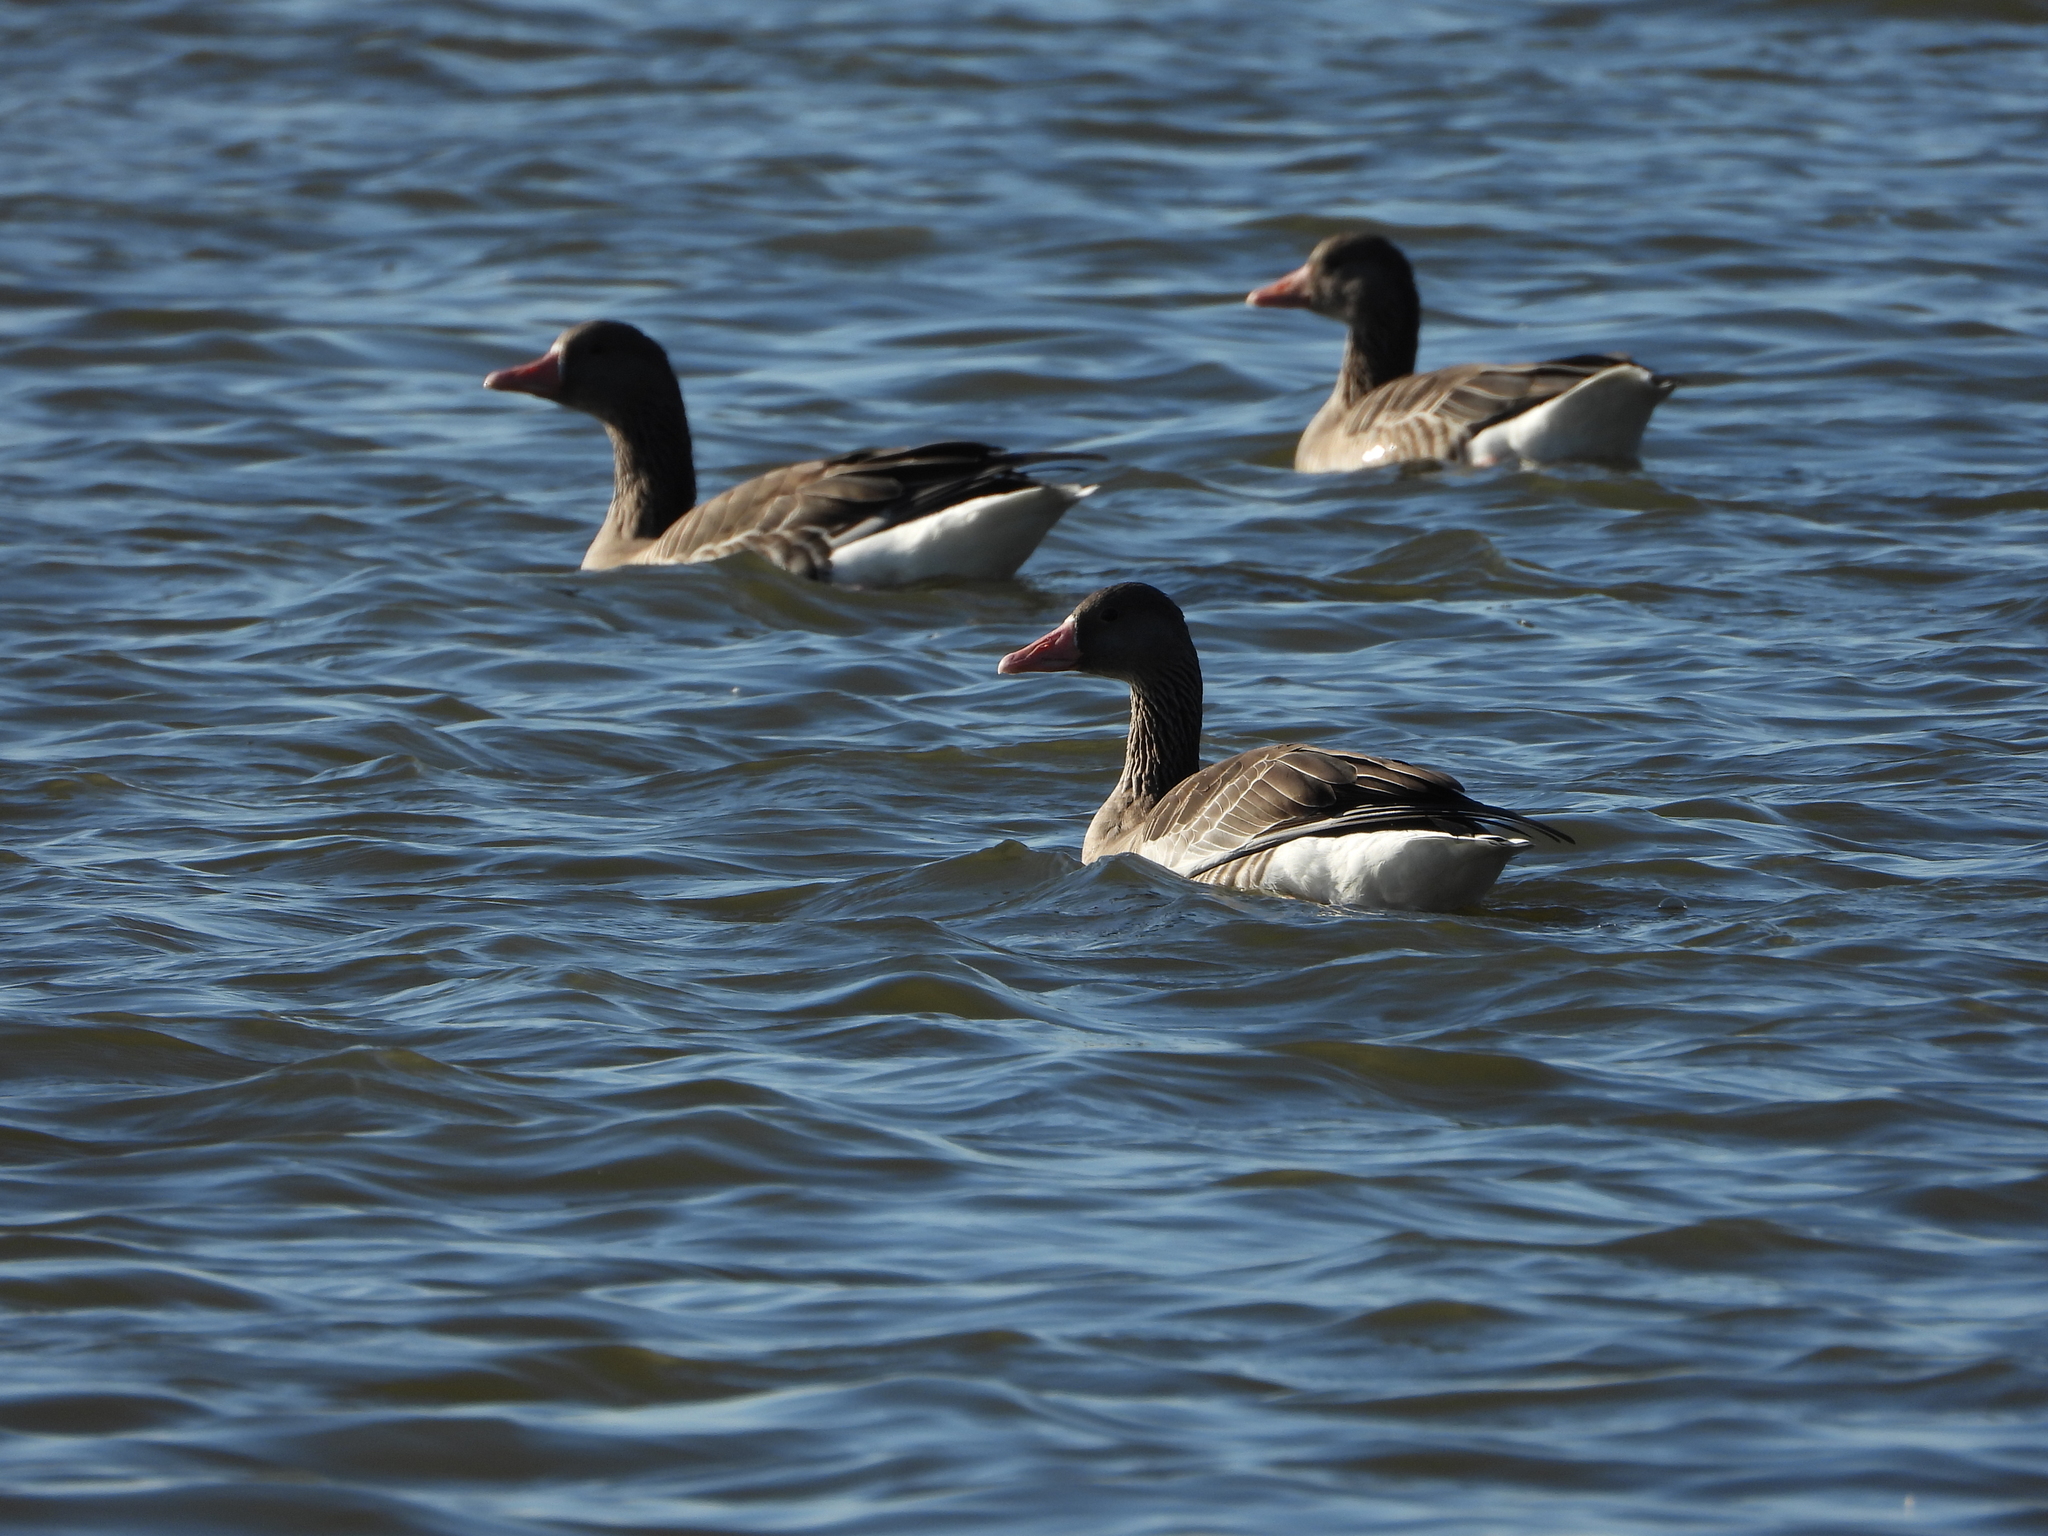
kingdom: Animalia
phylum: Chordata
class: Aves
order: Anseriformes
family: Anatidae
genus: Anser
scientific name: Anser anser
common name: Greylag goose
